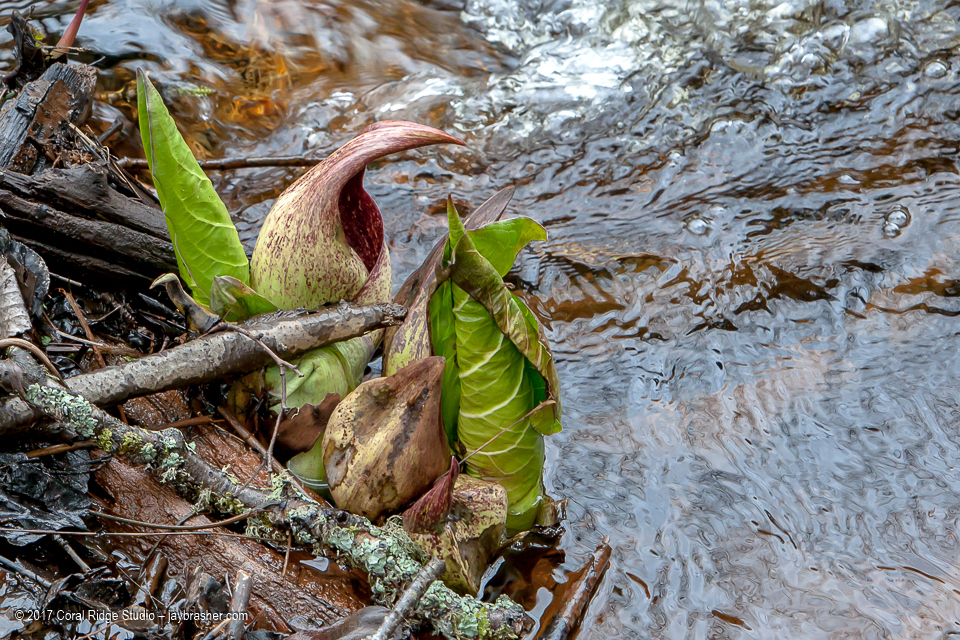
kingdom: Plantae
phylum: Tracheophyta
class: Liliopsida
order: Alismatales
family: Araceae
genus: Symplocarpus
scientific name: Symplocarpus foetidus
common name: Eastern skunk cabbage
